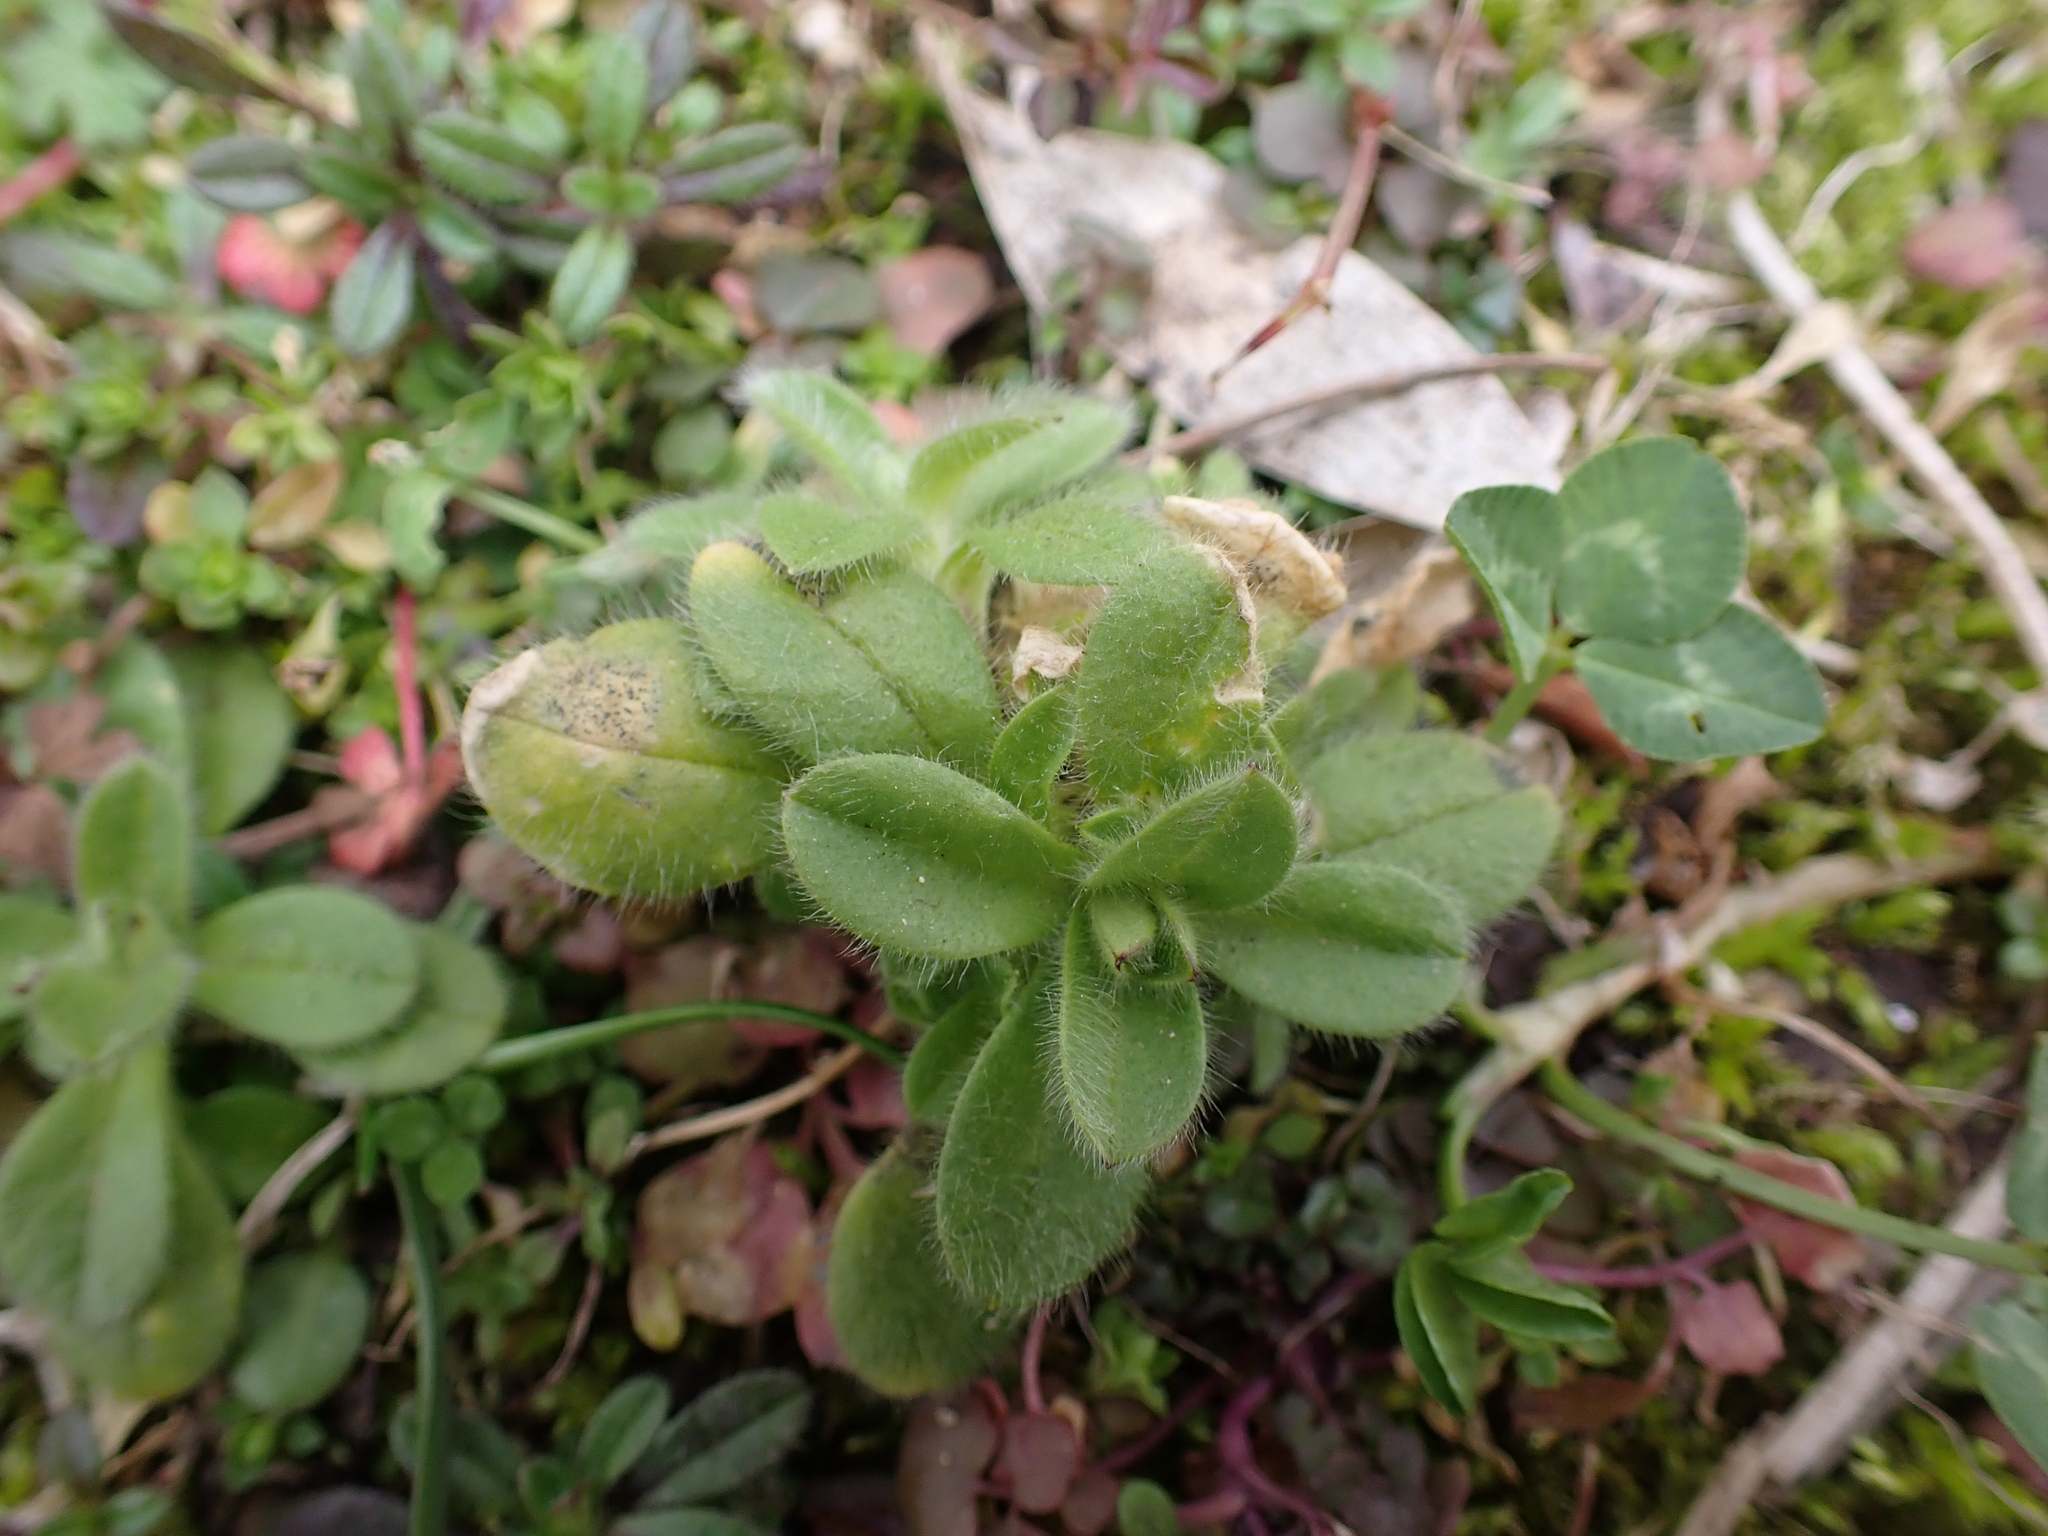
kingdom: Fungi
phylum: Ascomycota
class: Dothideomycetes
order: Mycosphaerellales
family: Mycosphaerellaceae
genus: Septoria
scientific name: Septoria cerastii
